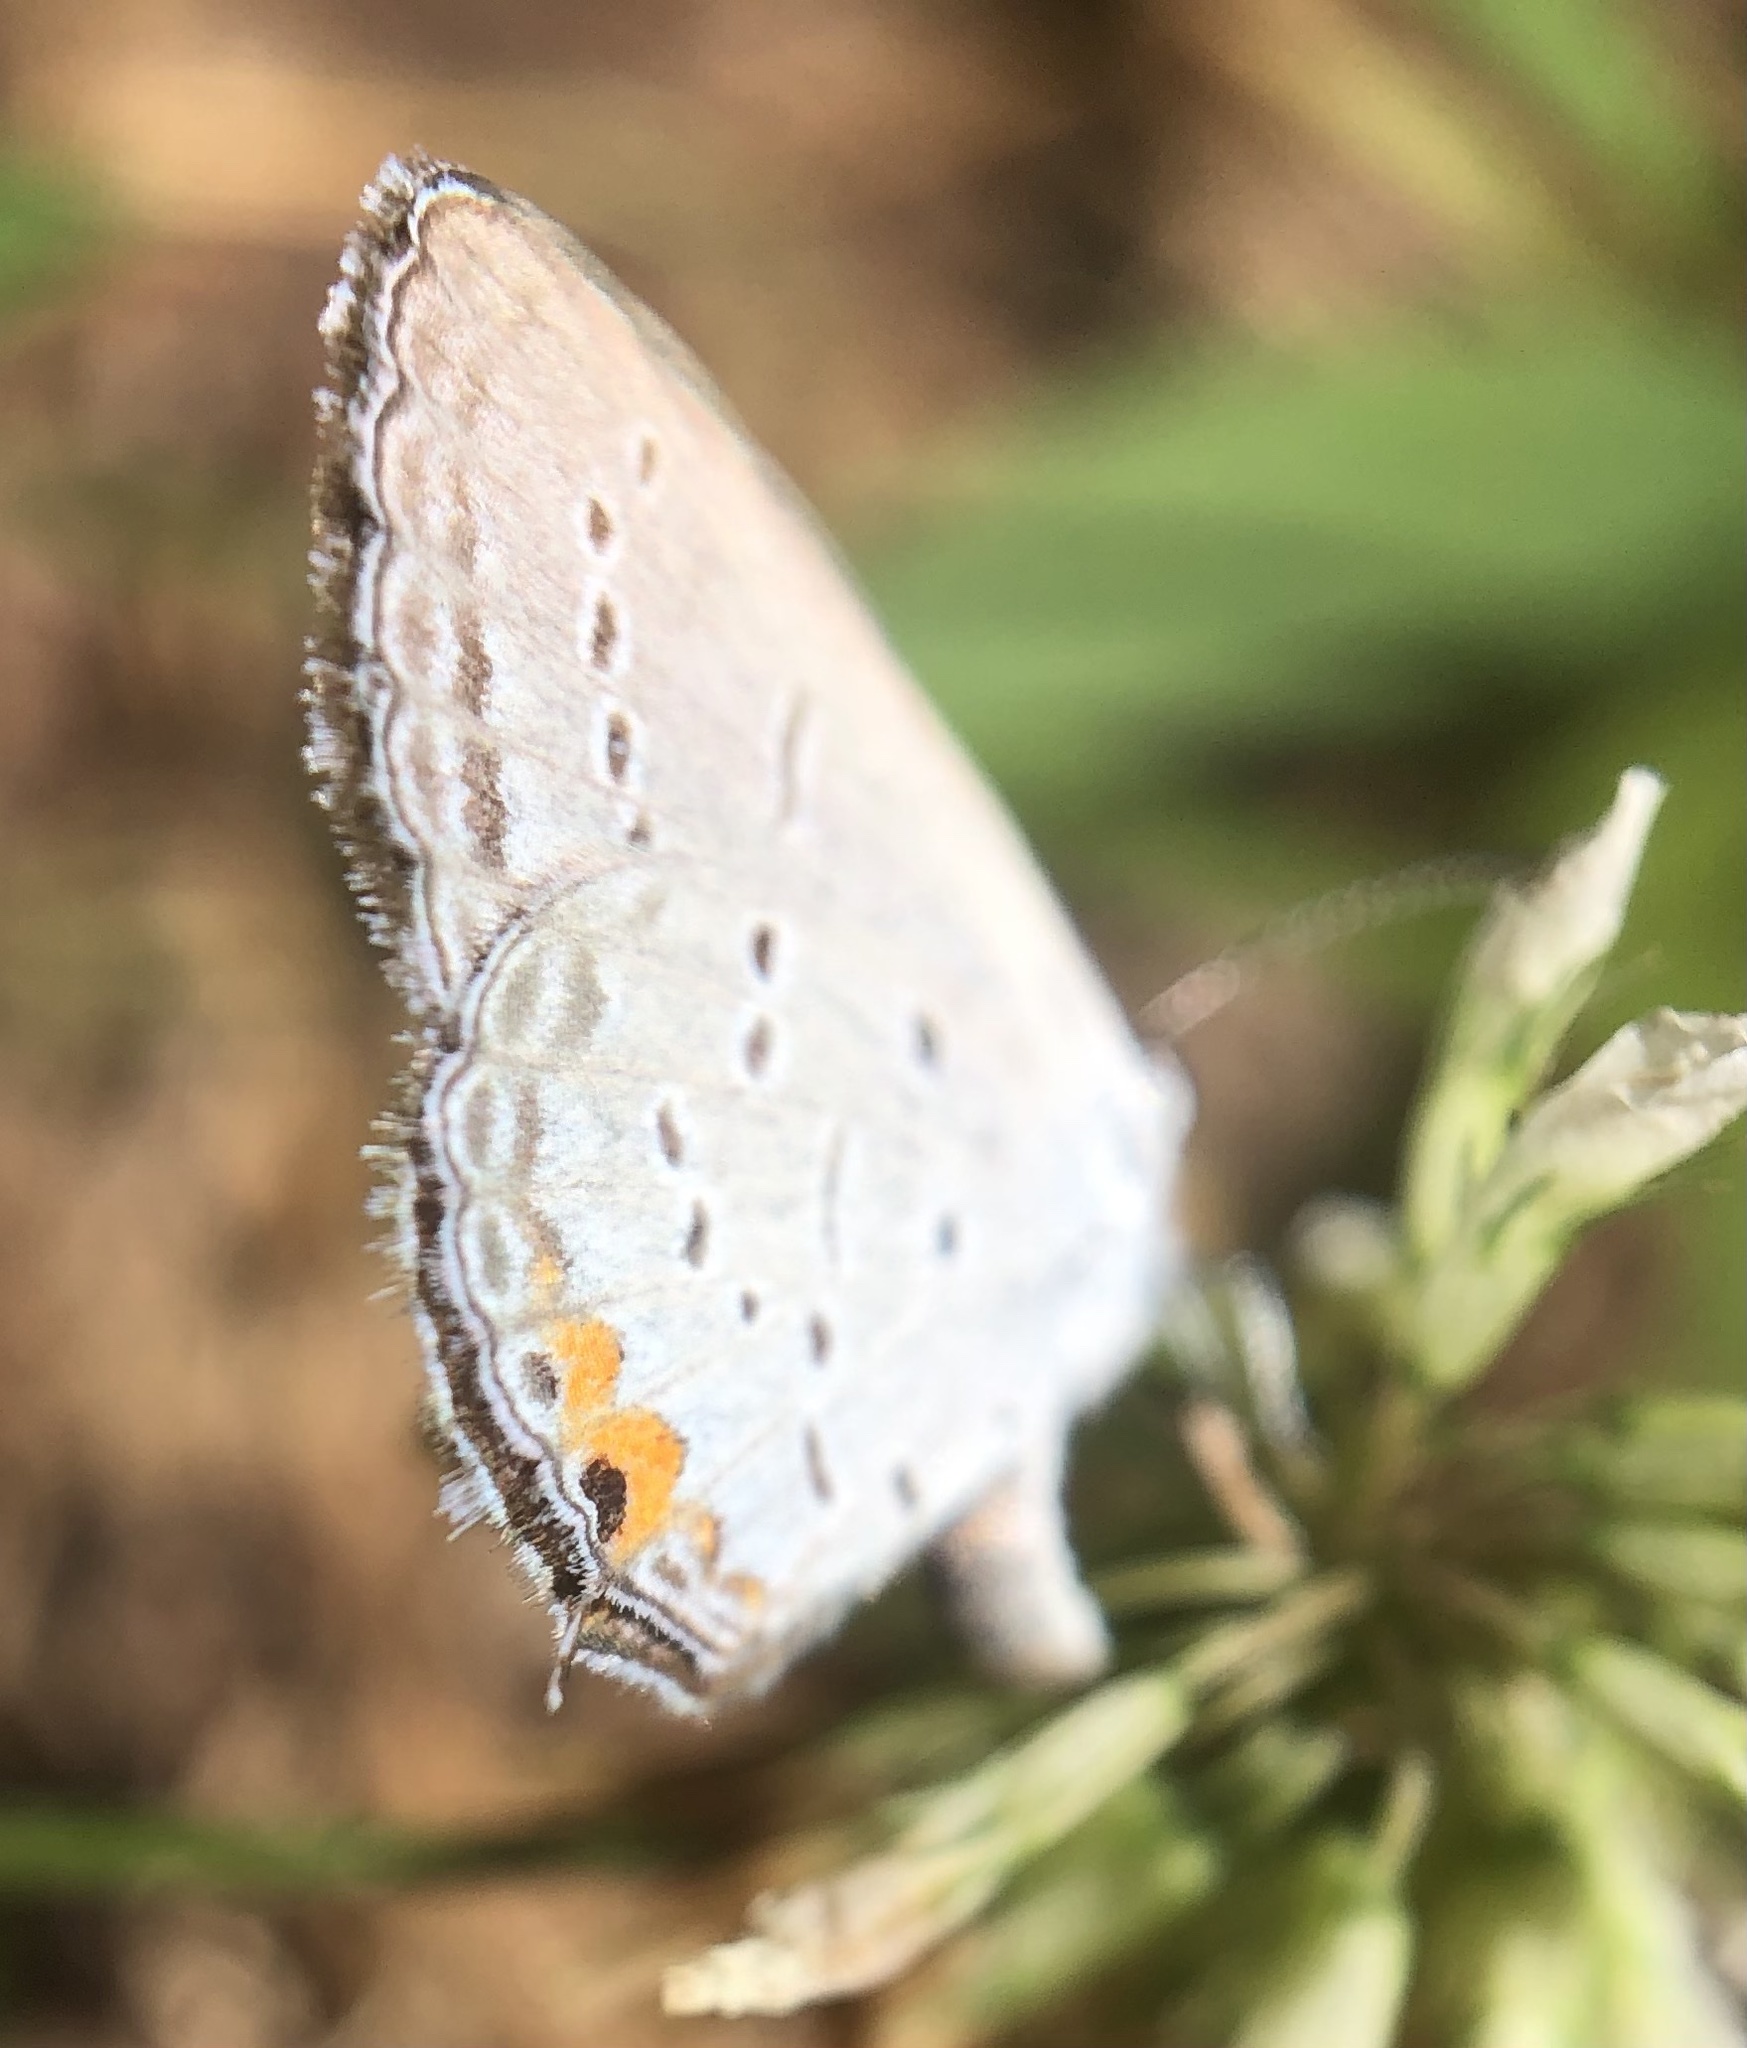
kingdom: Animalia
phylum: Arthropoda
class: Insecta
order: Lepidoptera
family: Lycaenidae
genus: Elkalyce
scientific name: Elkalyce comyntas
